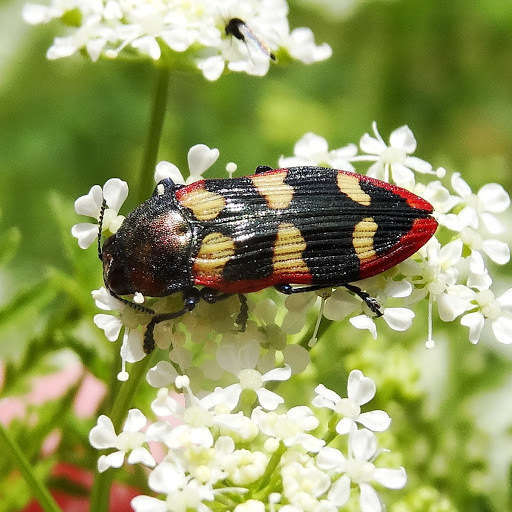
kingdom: Animalia
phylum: Arthropoda
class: Insecta
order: Coleoptera
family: Buprestidae
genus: Castiarina
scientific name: Castiarina punctatosulcata
